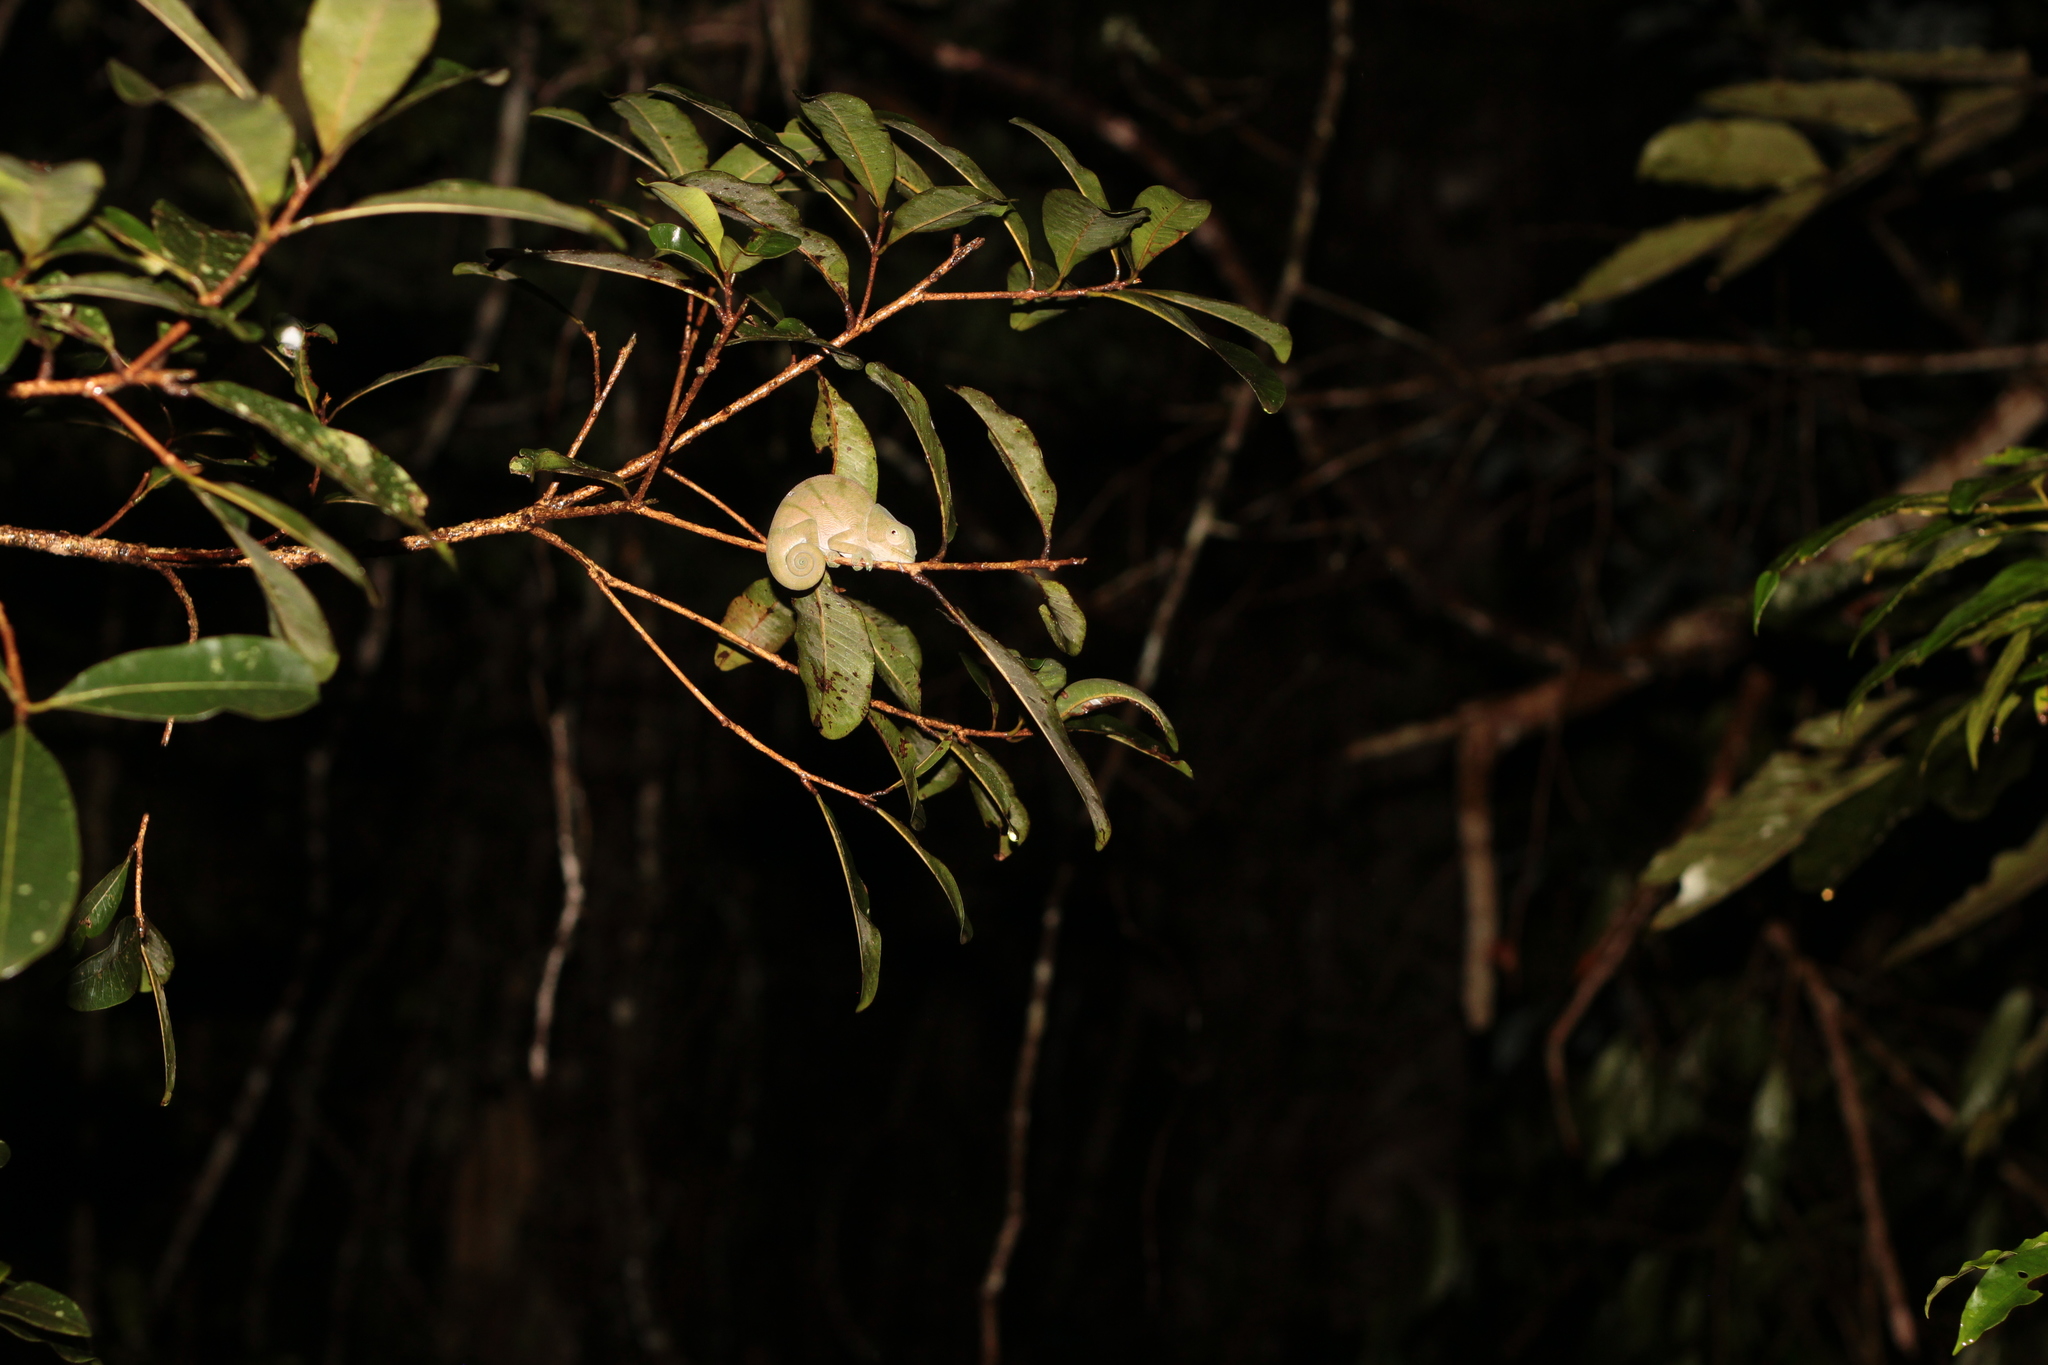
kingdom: Animalia
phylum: Chordata
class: Squamata
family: Chamaeleonidae
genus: Calumma
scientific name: Calumma parsonii
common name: Parson's chameleon
